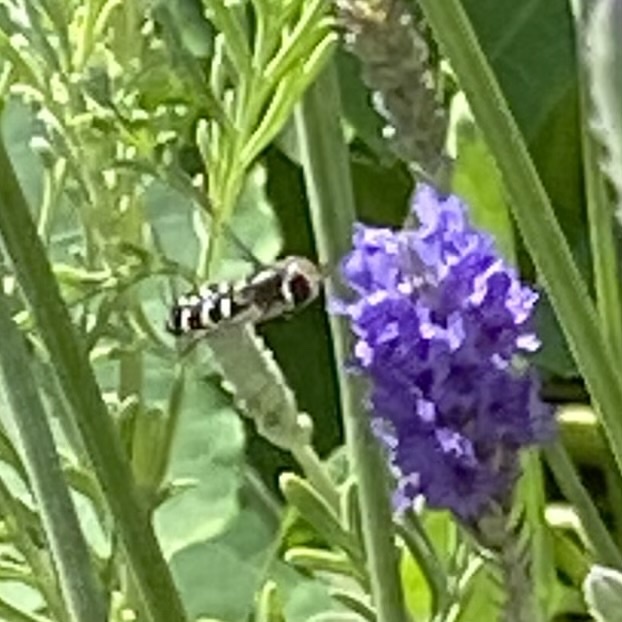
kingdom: Animalia
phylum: Arthropoda
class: Insecta
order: Diptera
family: Syrphidae
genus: Scaeva
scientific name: Scaeva affinis
